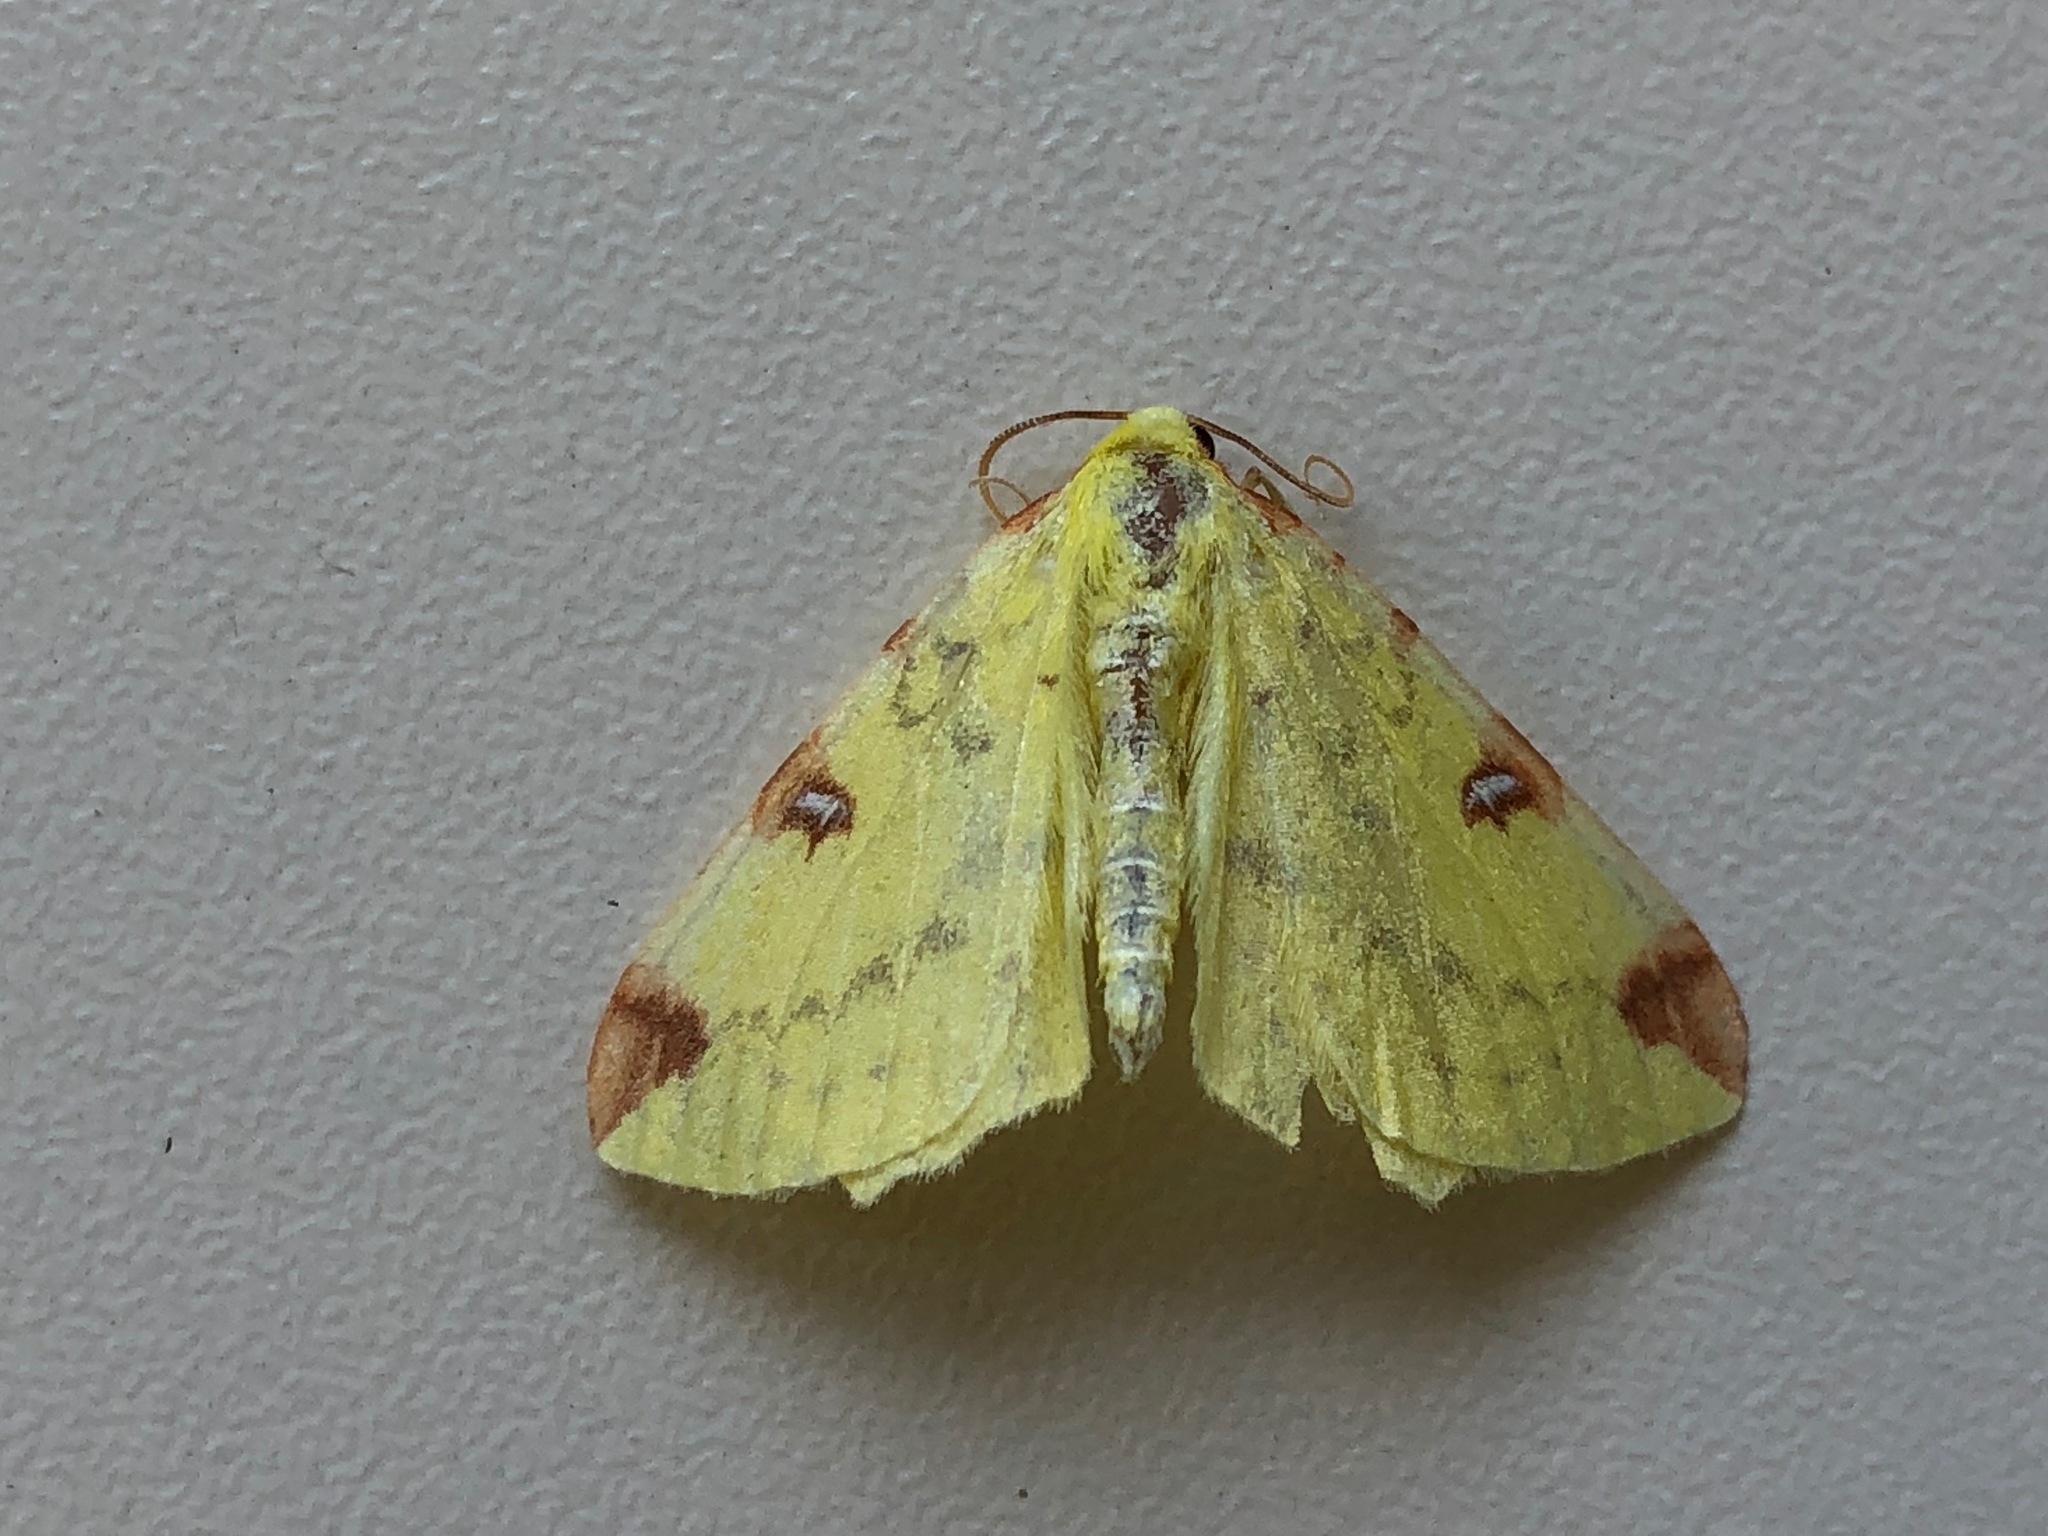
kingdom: Animalia
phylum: Arthropoda
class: Insecta
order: Lepidoptera
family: Geometridae
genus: Opisthograptis
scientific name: Opisthograptis luteolata
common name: Brimstone moth
